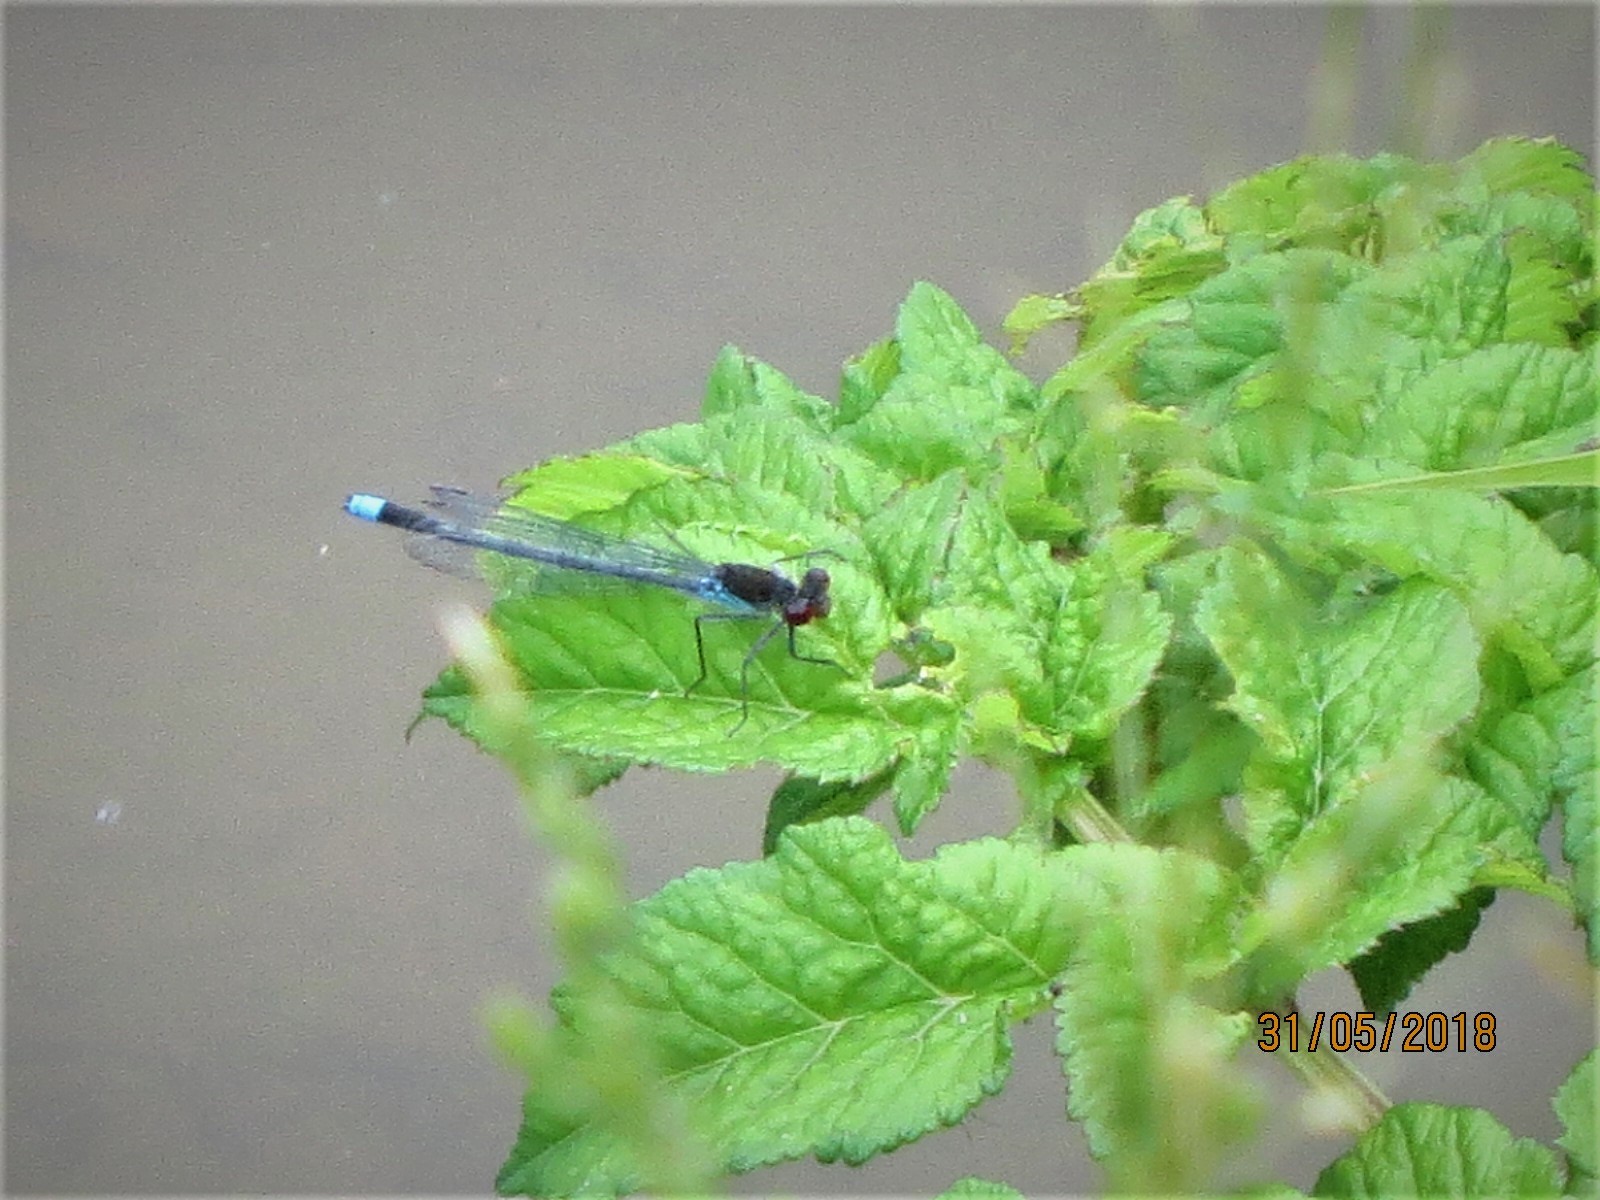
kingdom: Animalia
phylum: Arthropoda
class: Insecta
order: Odonata
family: Coenagrionidae
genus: Erythromma
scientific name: Erythromma najas
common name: Red-eyed damselfly
